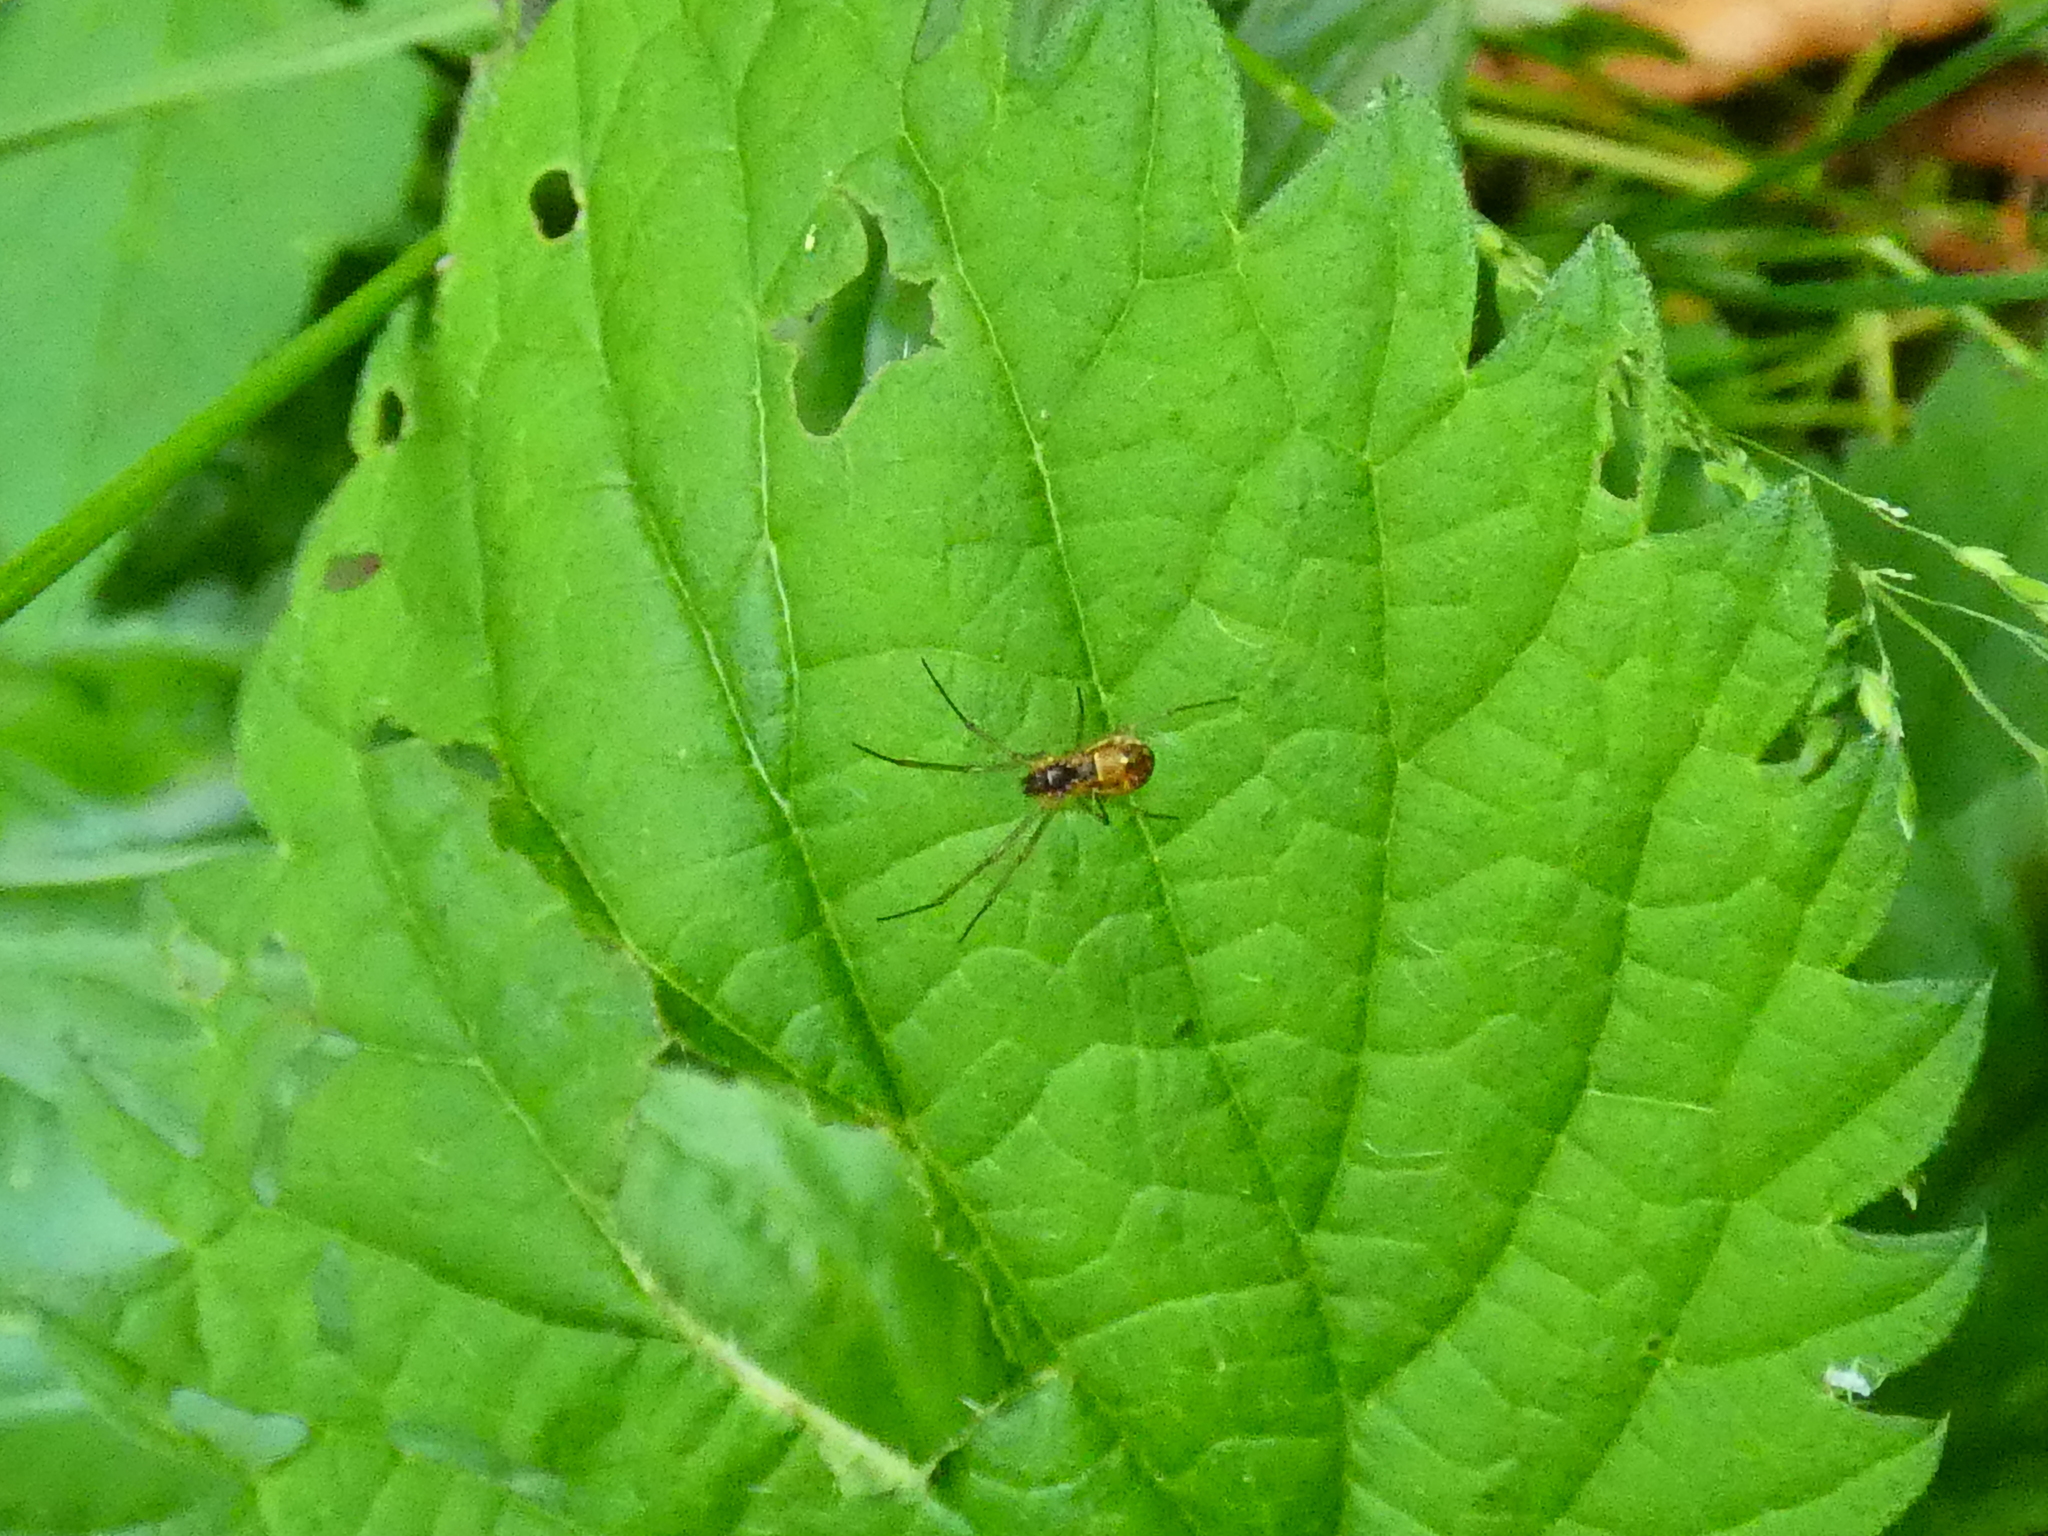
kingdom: Animalia
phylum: Arthropoda
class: Arachnida
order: Araneae
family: Linyphiidae
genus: Neriene
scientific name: Neriene peltata
